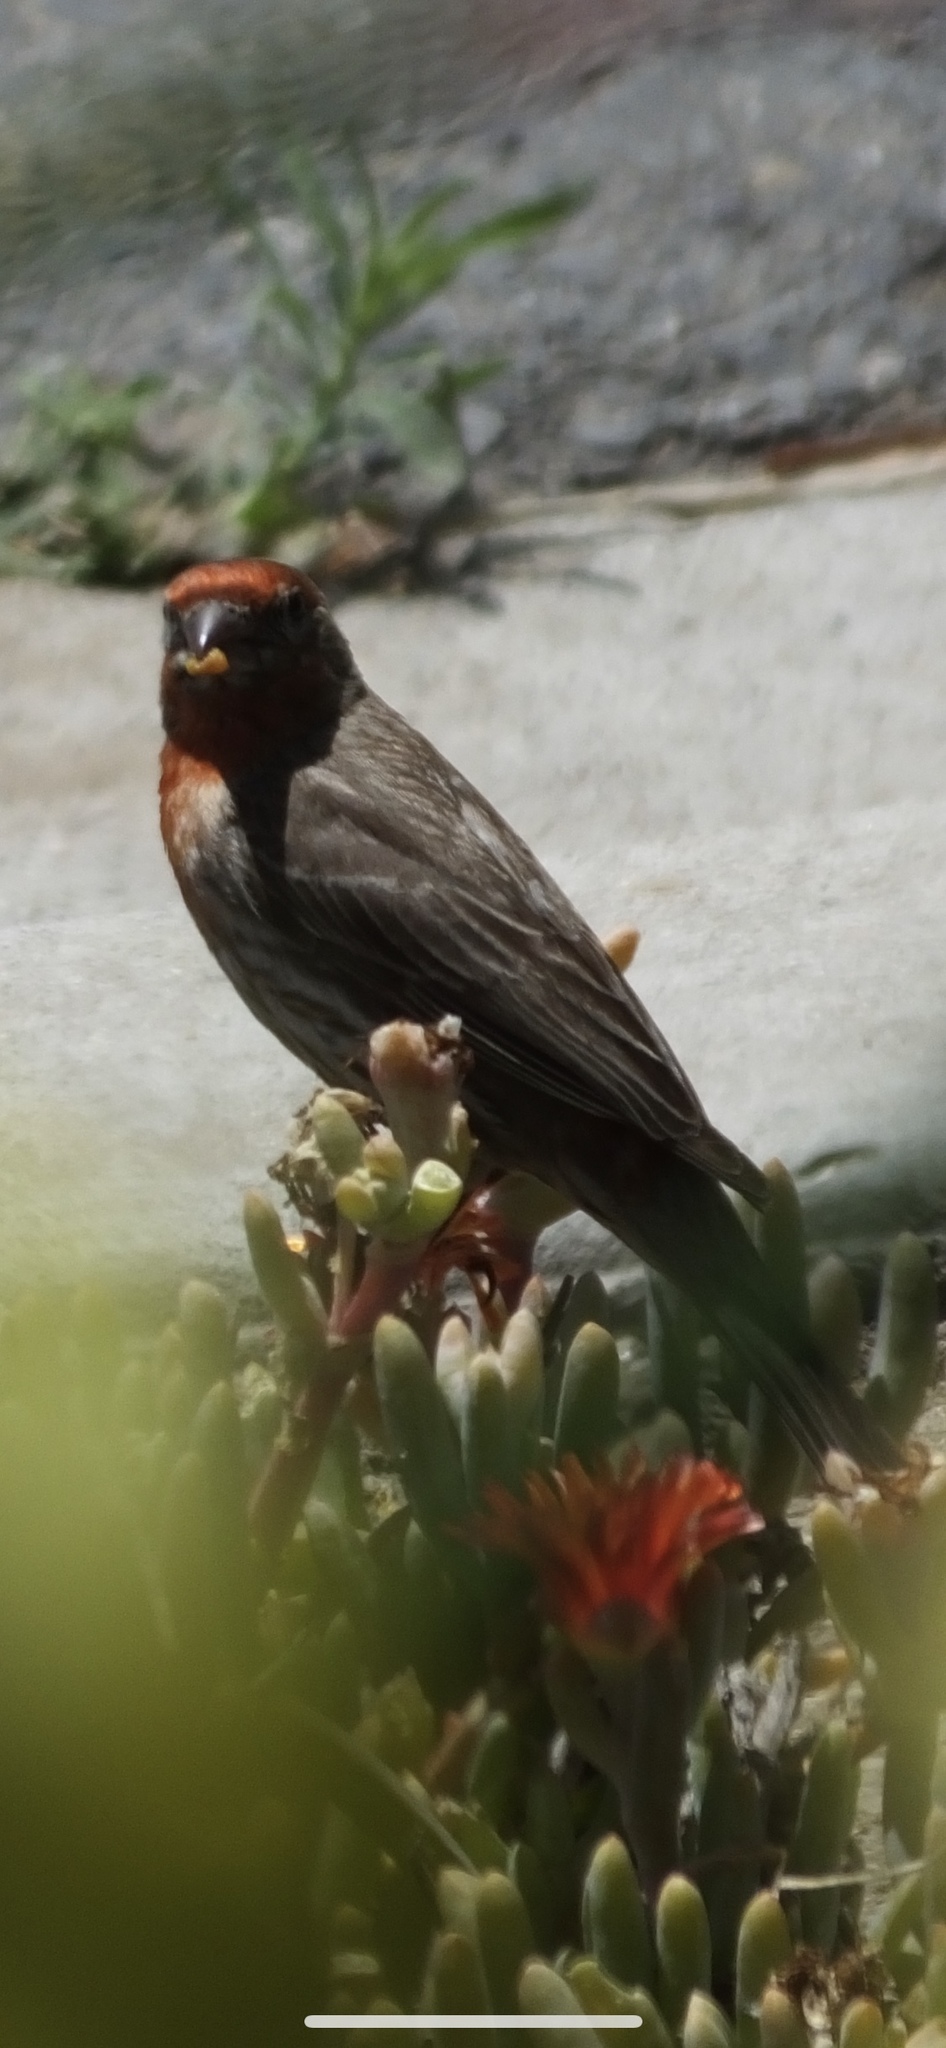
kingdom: Animalia
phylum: Chordata
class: Aves
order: Passeriformes
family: Fringillidae
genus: Haemorhous
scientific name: Haemorhous mexicanus
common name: House finch
